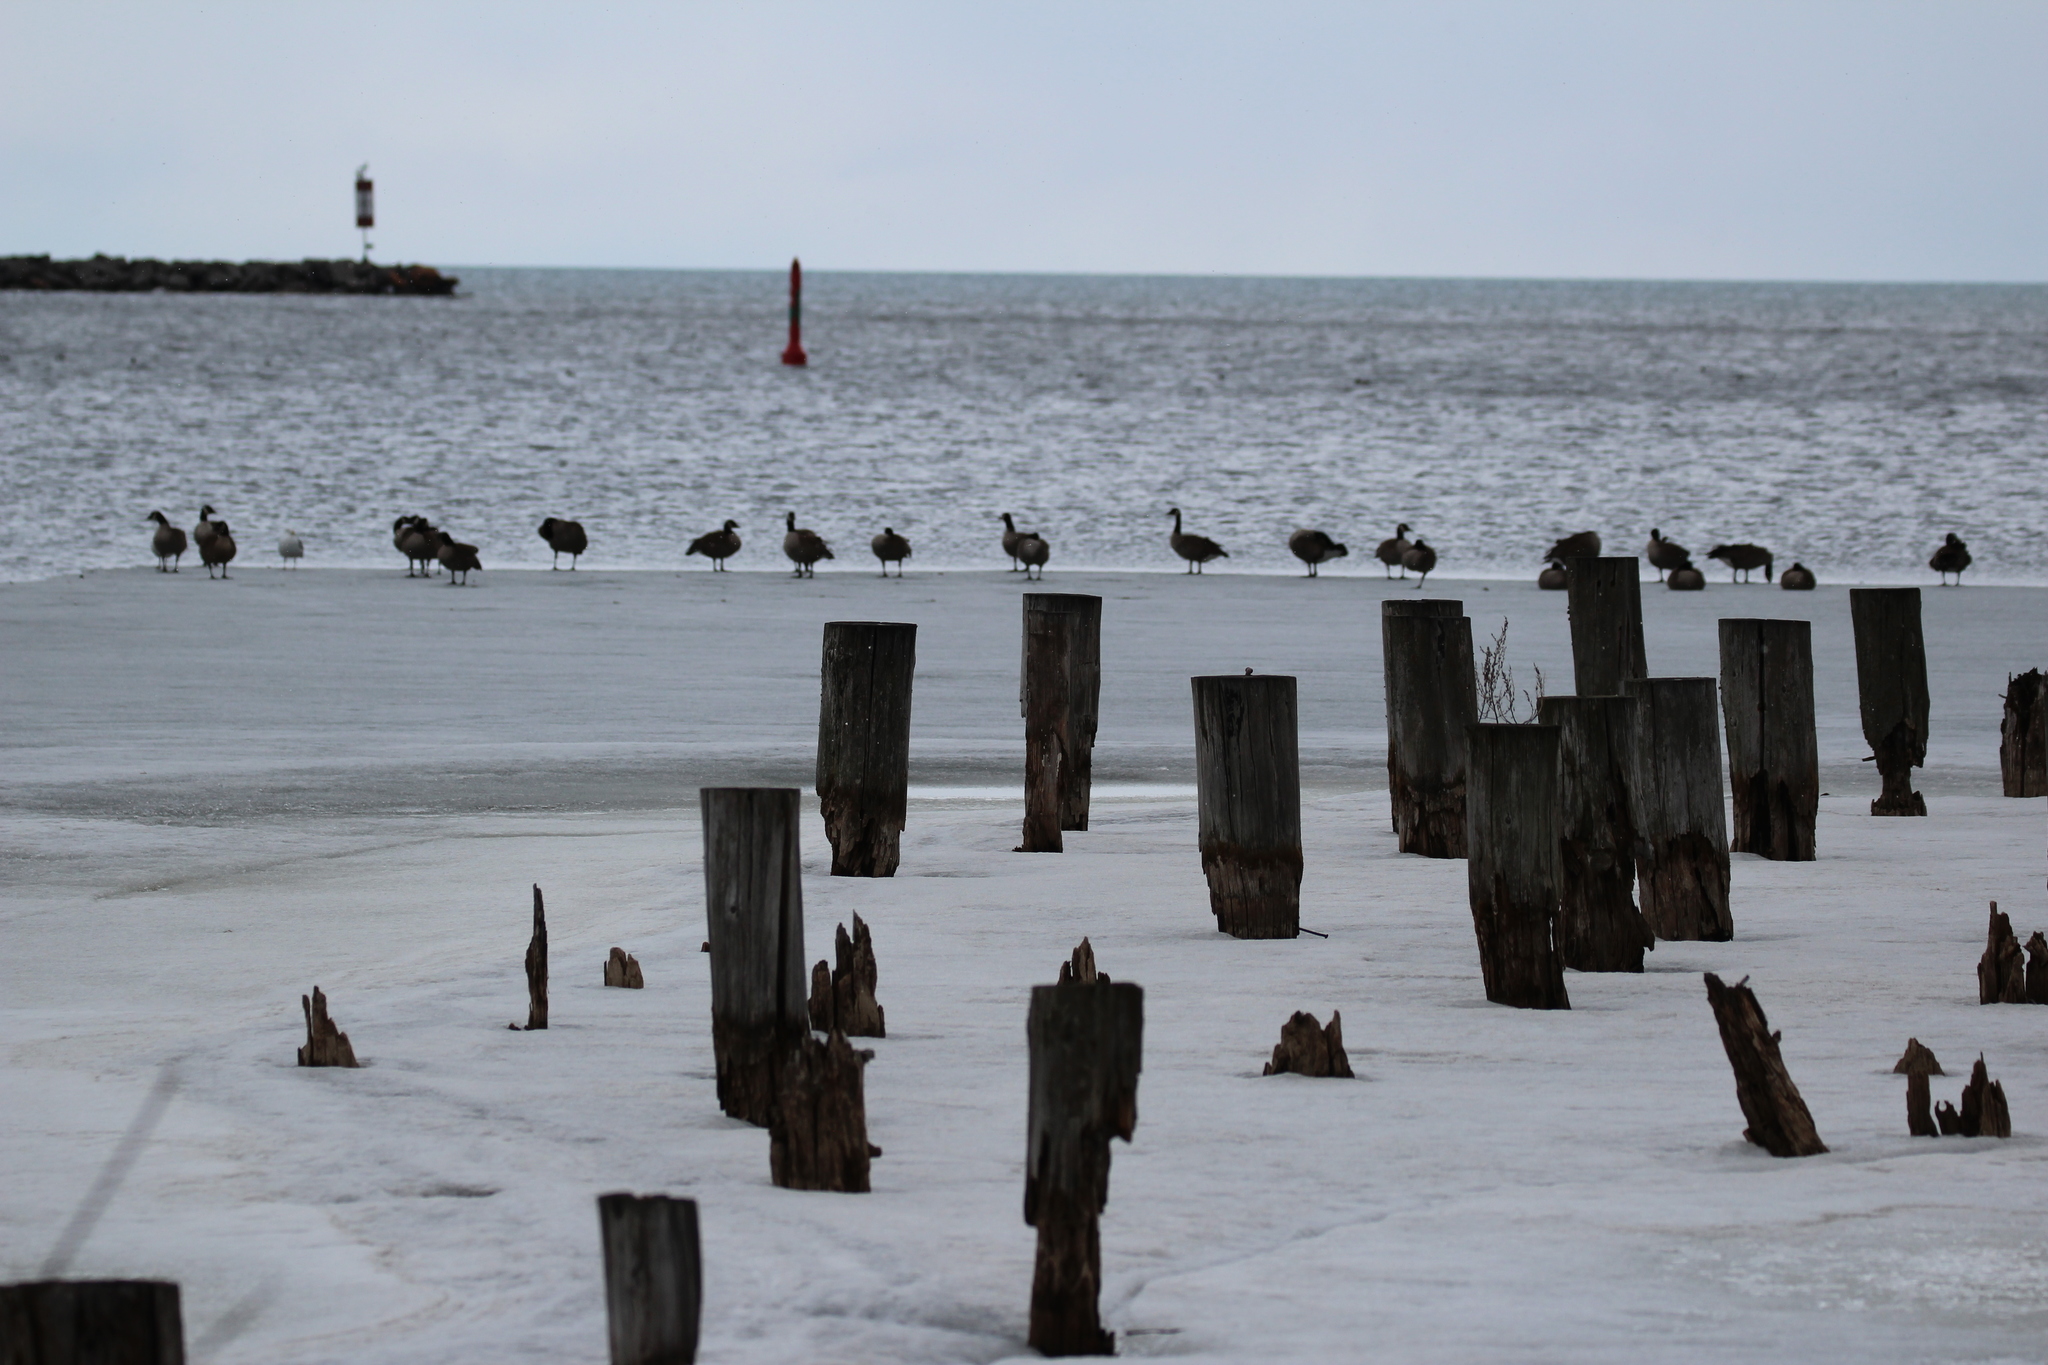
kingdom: Animalia
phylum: Chordata
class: Aves
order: Anseriformes
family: Anatidae
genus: Branta
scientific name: Branta canadensis
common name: Canada goose
